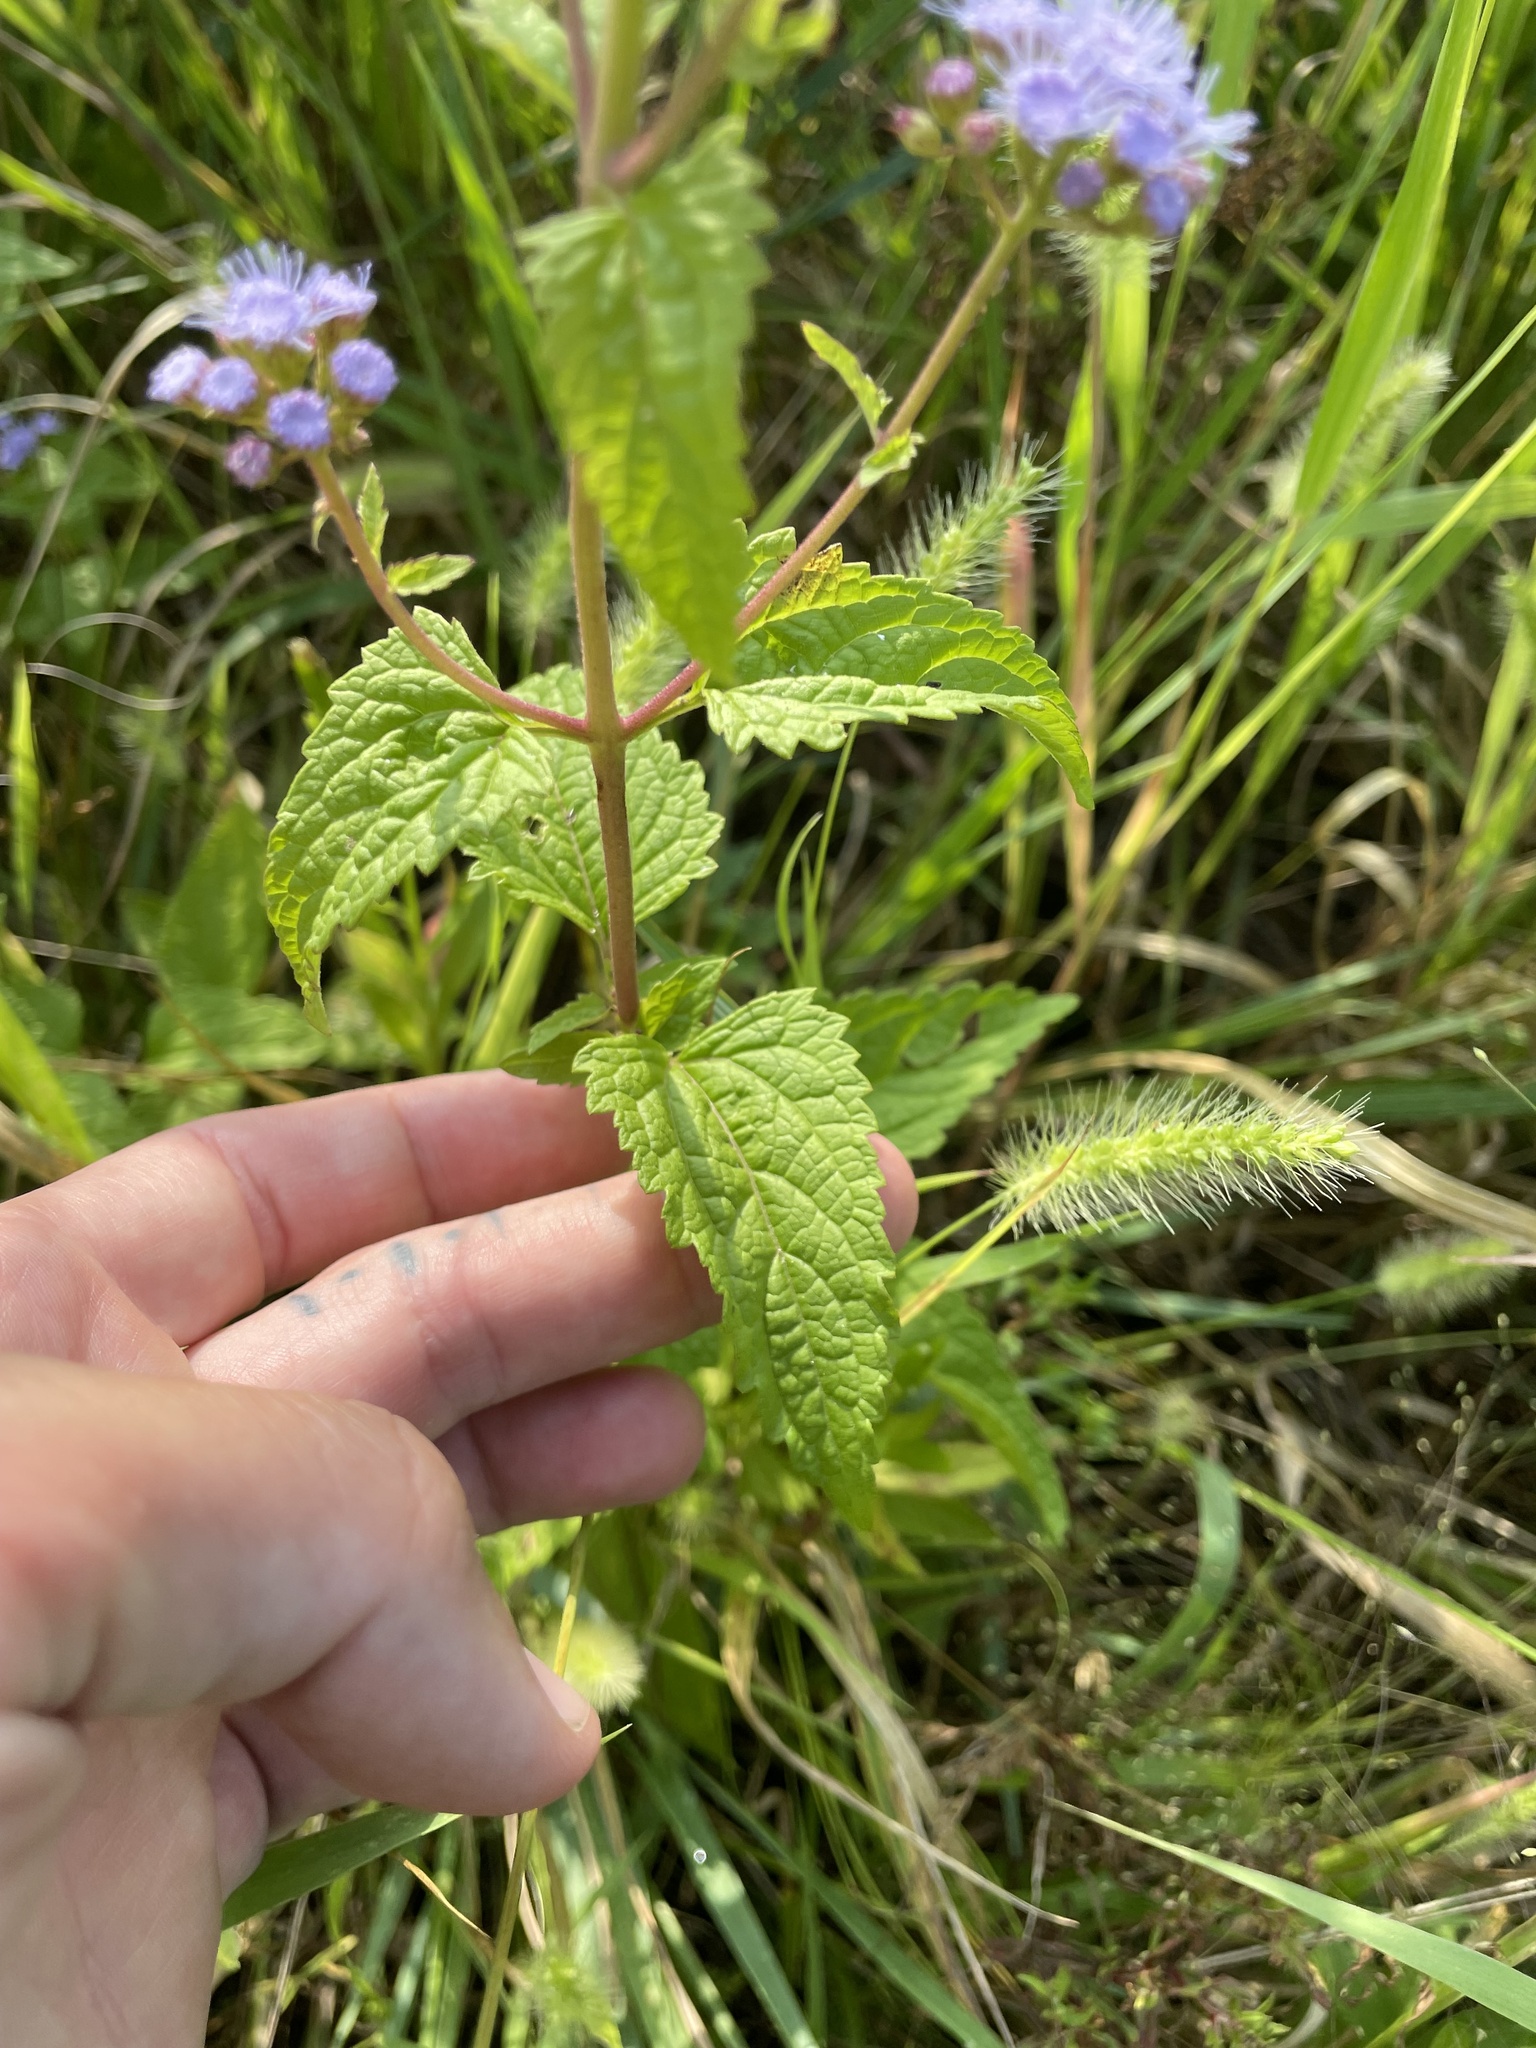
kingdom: Plantae
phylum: Tracheophyta
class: Magnoliopsida
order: Asterales
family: Asteraceae
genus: Conoclinium
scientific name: Conoclinium coelestinum
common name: Blue mistflower
